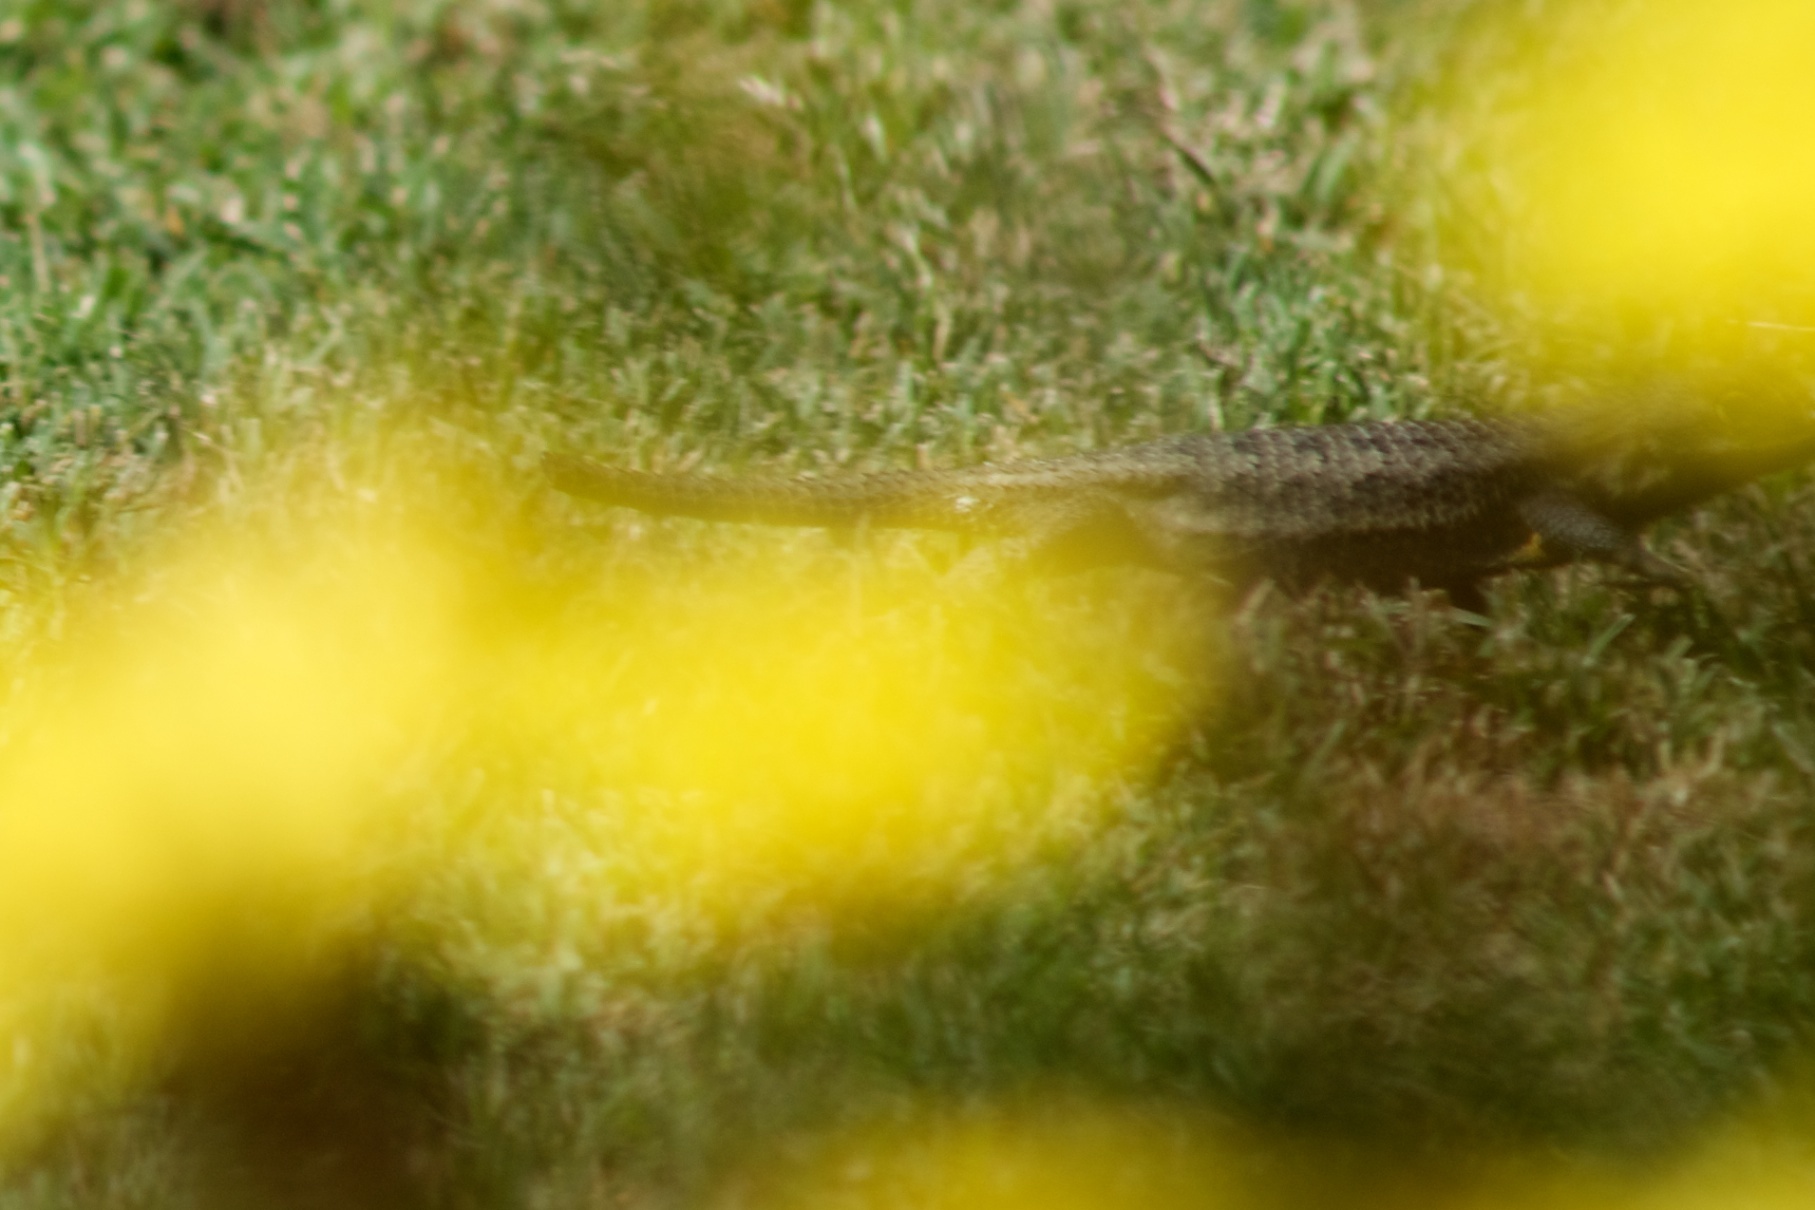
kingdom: Animalia
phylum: Chordata
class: Squamata
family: Phrynosomatidae
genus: Sceloporus
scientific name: Sceloporus occidentalis
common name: Western fence lizard
